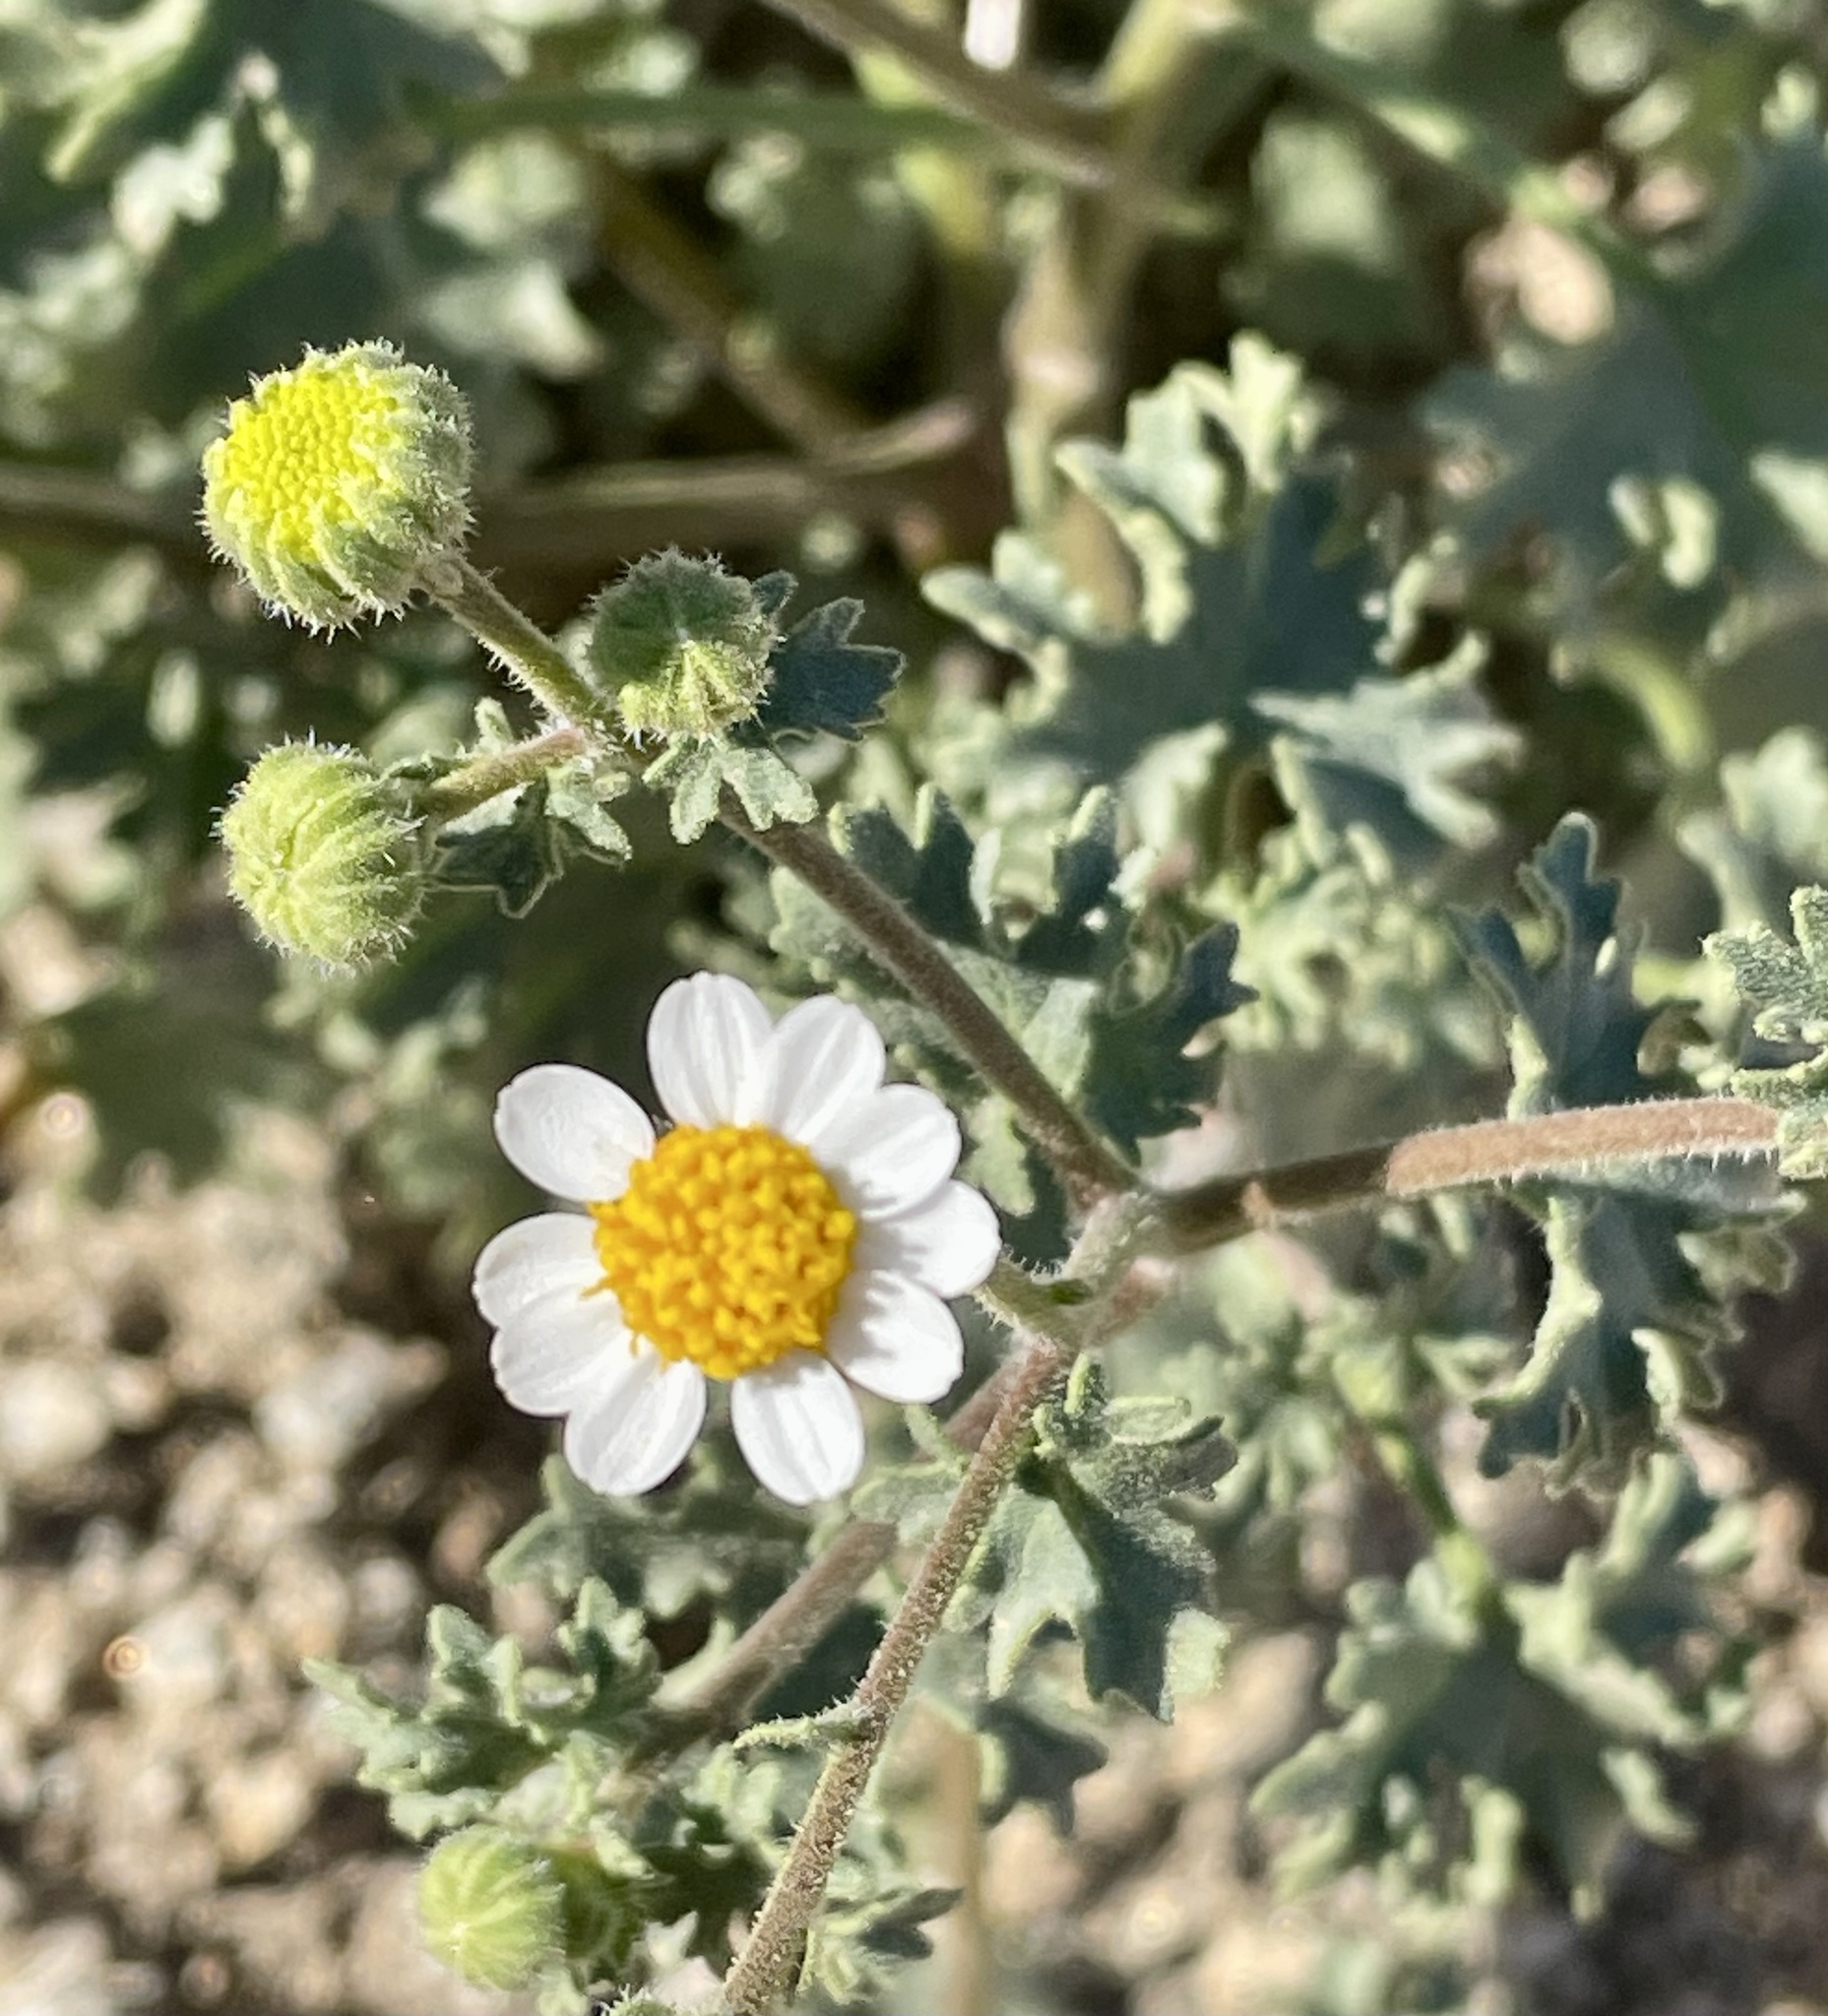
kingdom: Plantae
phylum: Tracheophyta
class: Magnoliopsida
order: Asterales
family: Asteraceae
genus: Laphamia
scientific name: Laphamia emoryi
